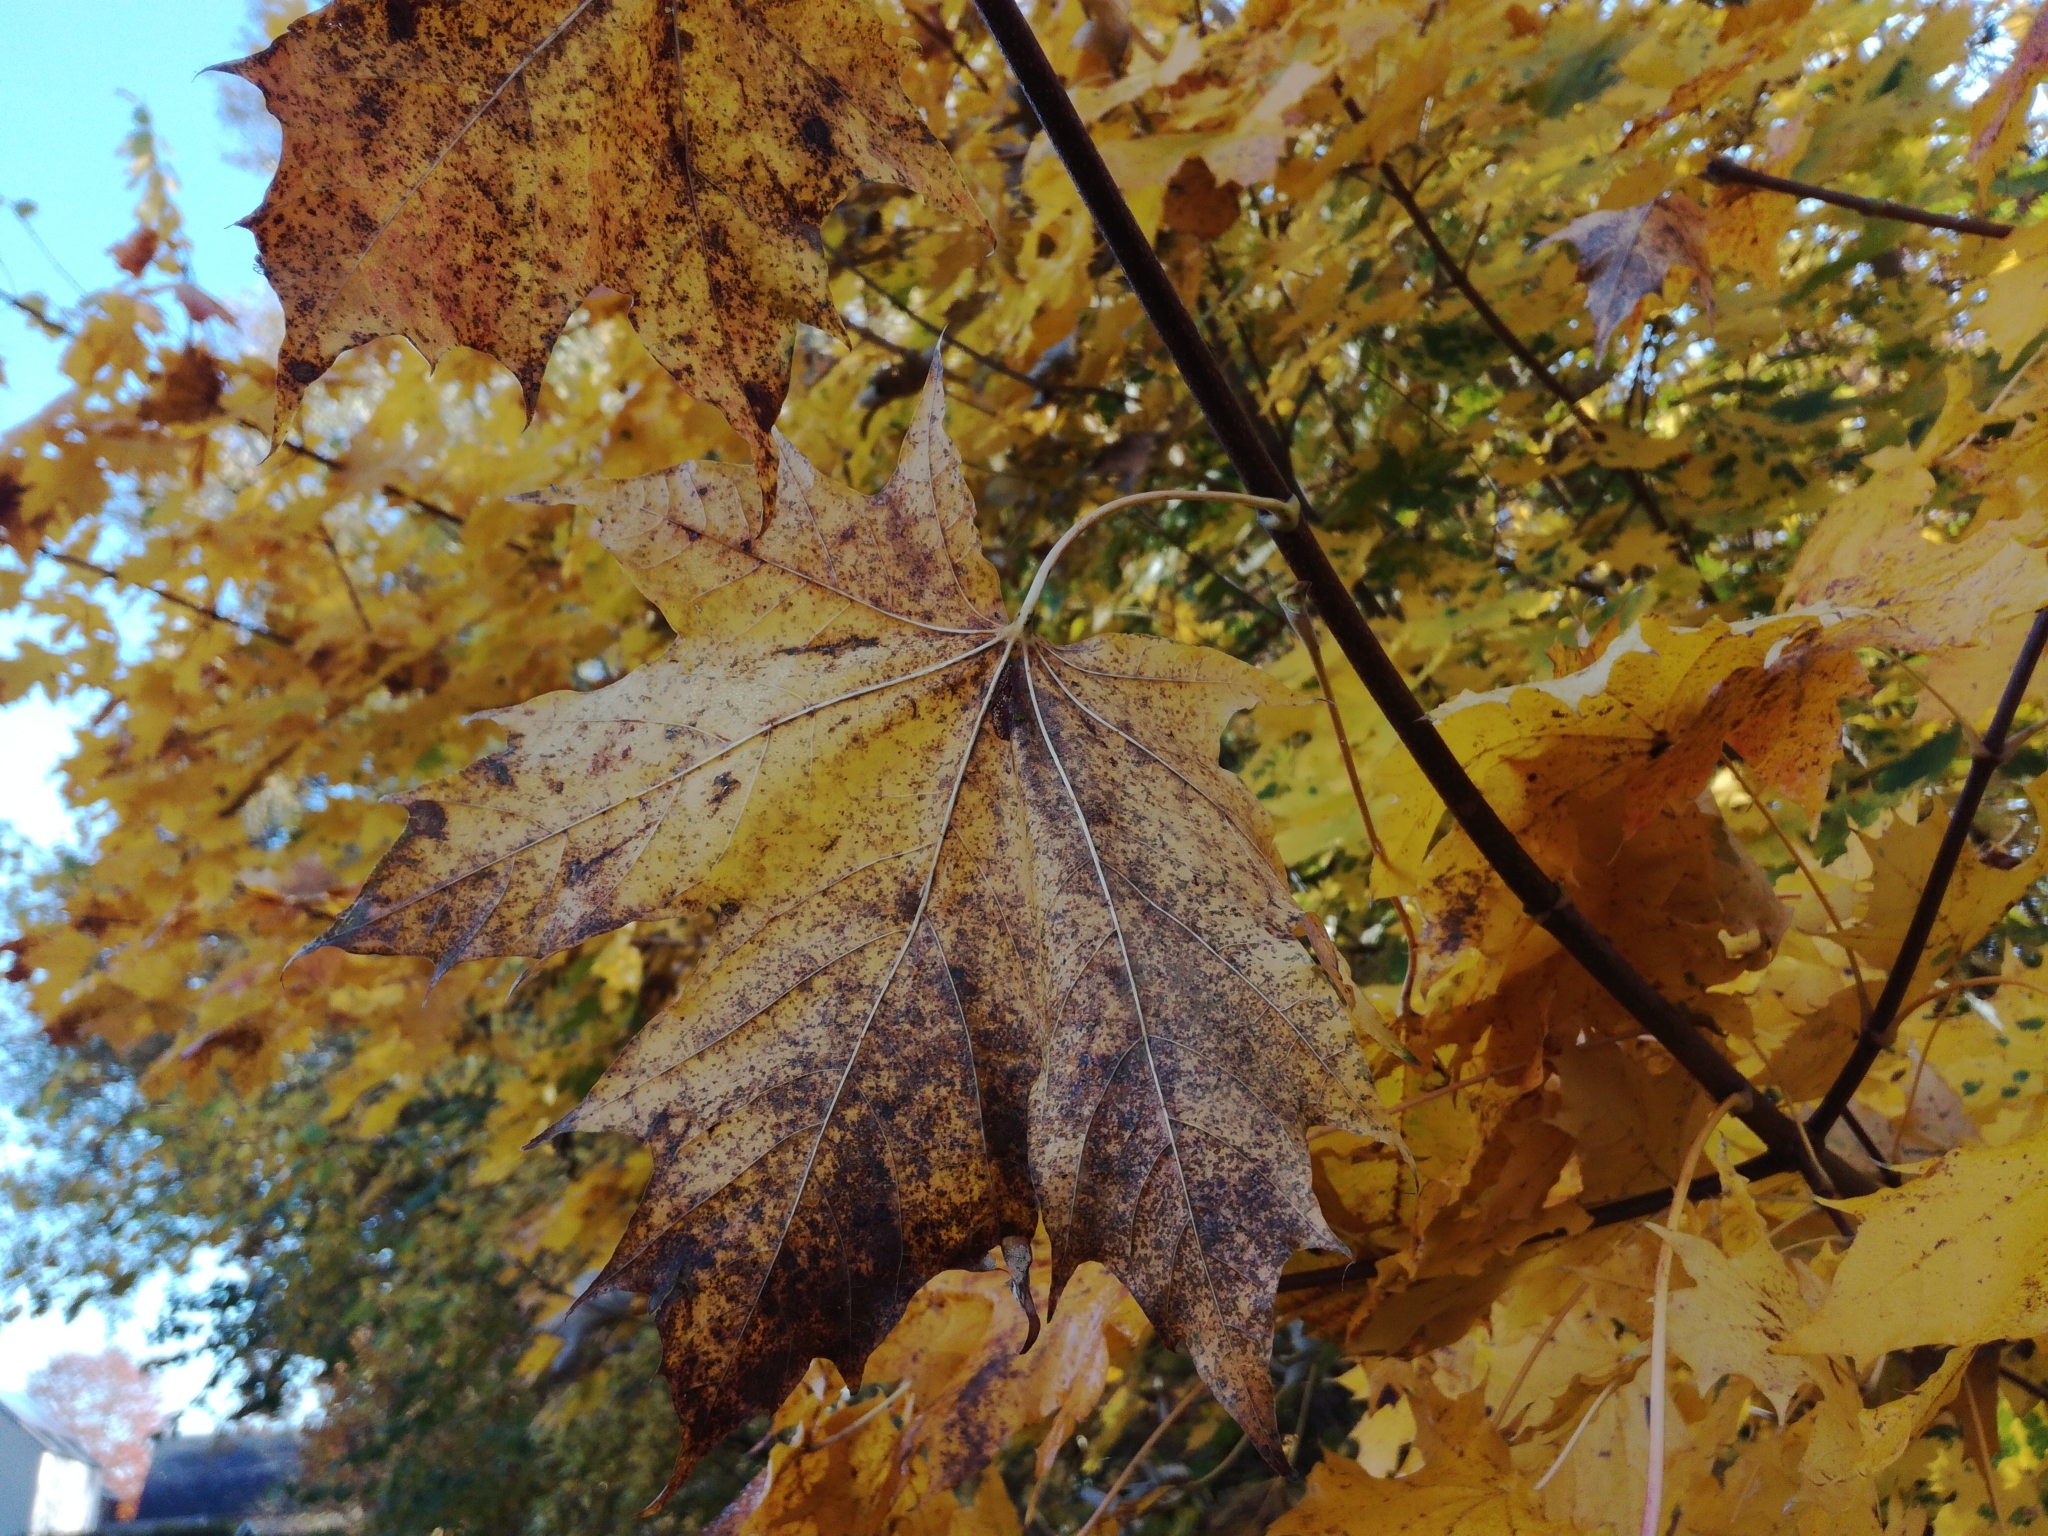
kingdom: Plantae
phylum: Tracheophyta
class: Magnoliopsida
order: Sapindales
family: Sapindaceae
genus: Acer
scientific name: Acer platanoides
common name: Norway maple
